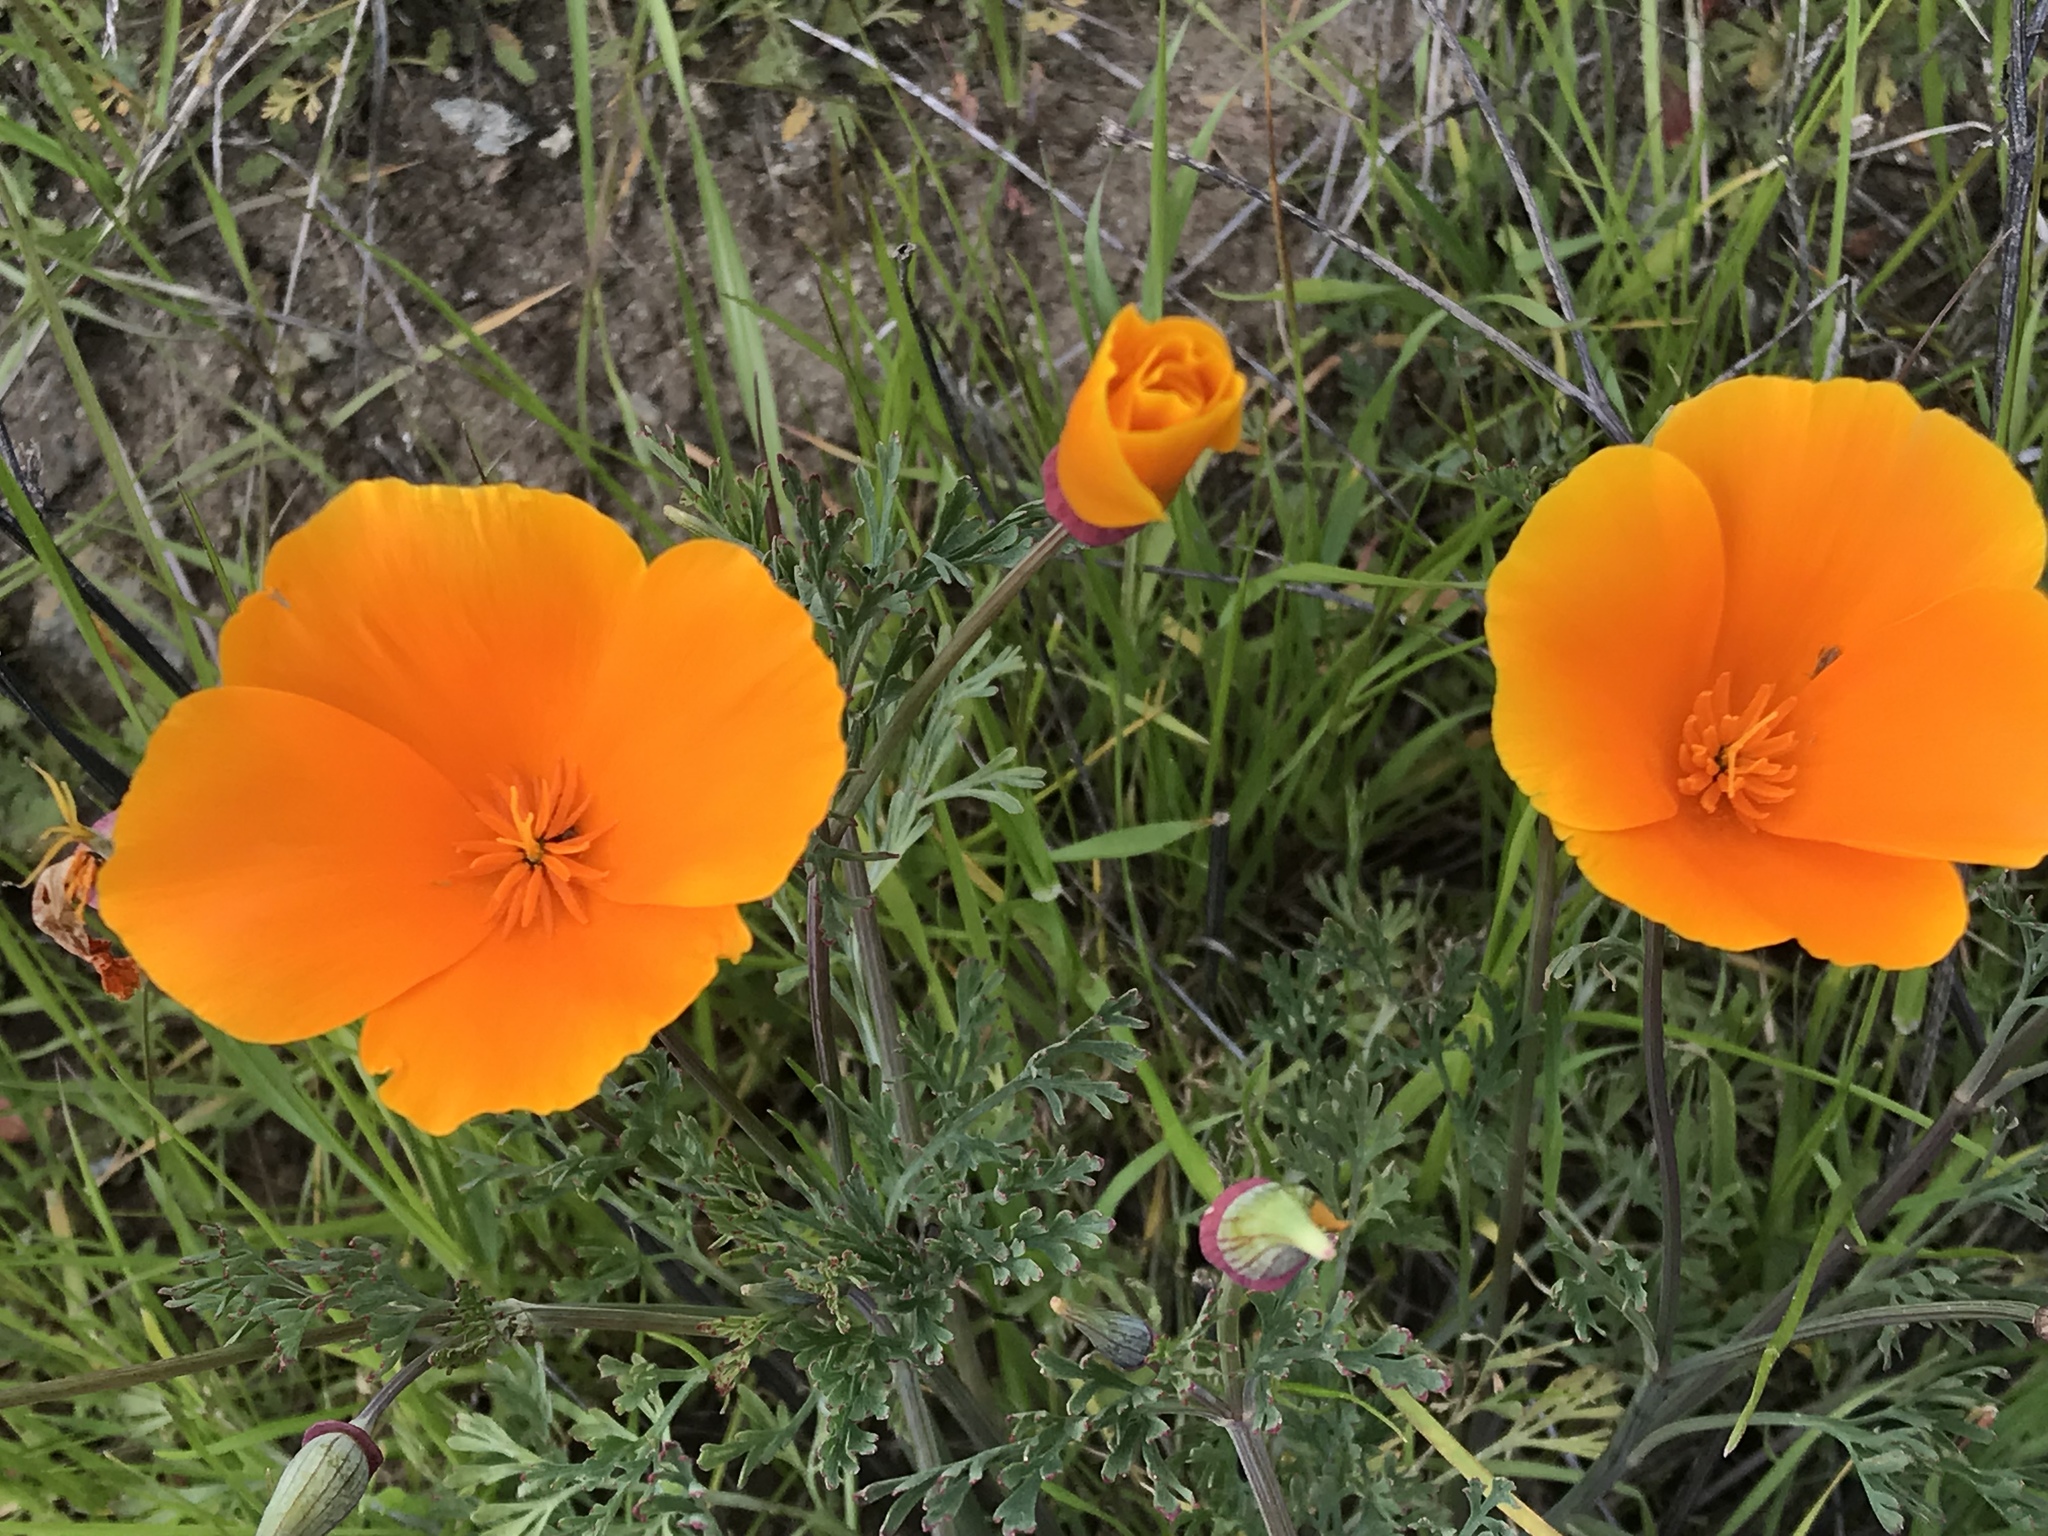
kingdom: Plantae
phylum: Tracheophyta
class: Magnoliopsida
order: Ranunculales
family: Papaveraceae
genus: Eschscholzia
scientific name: Eschscholzia californica
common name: California poppy
